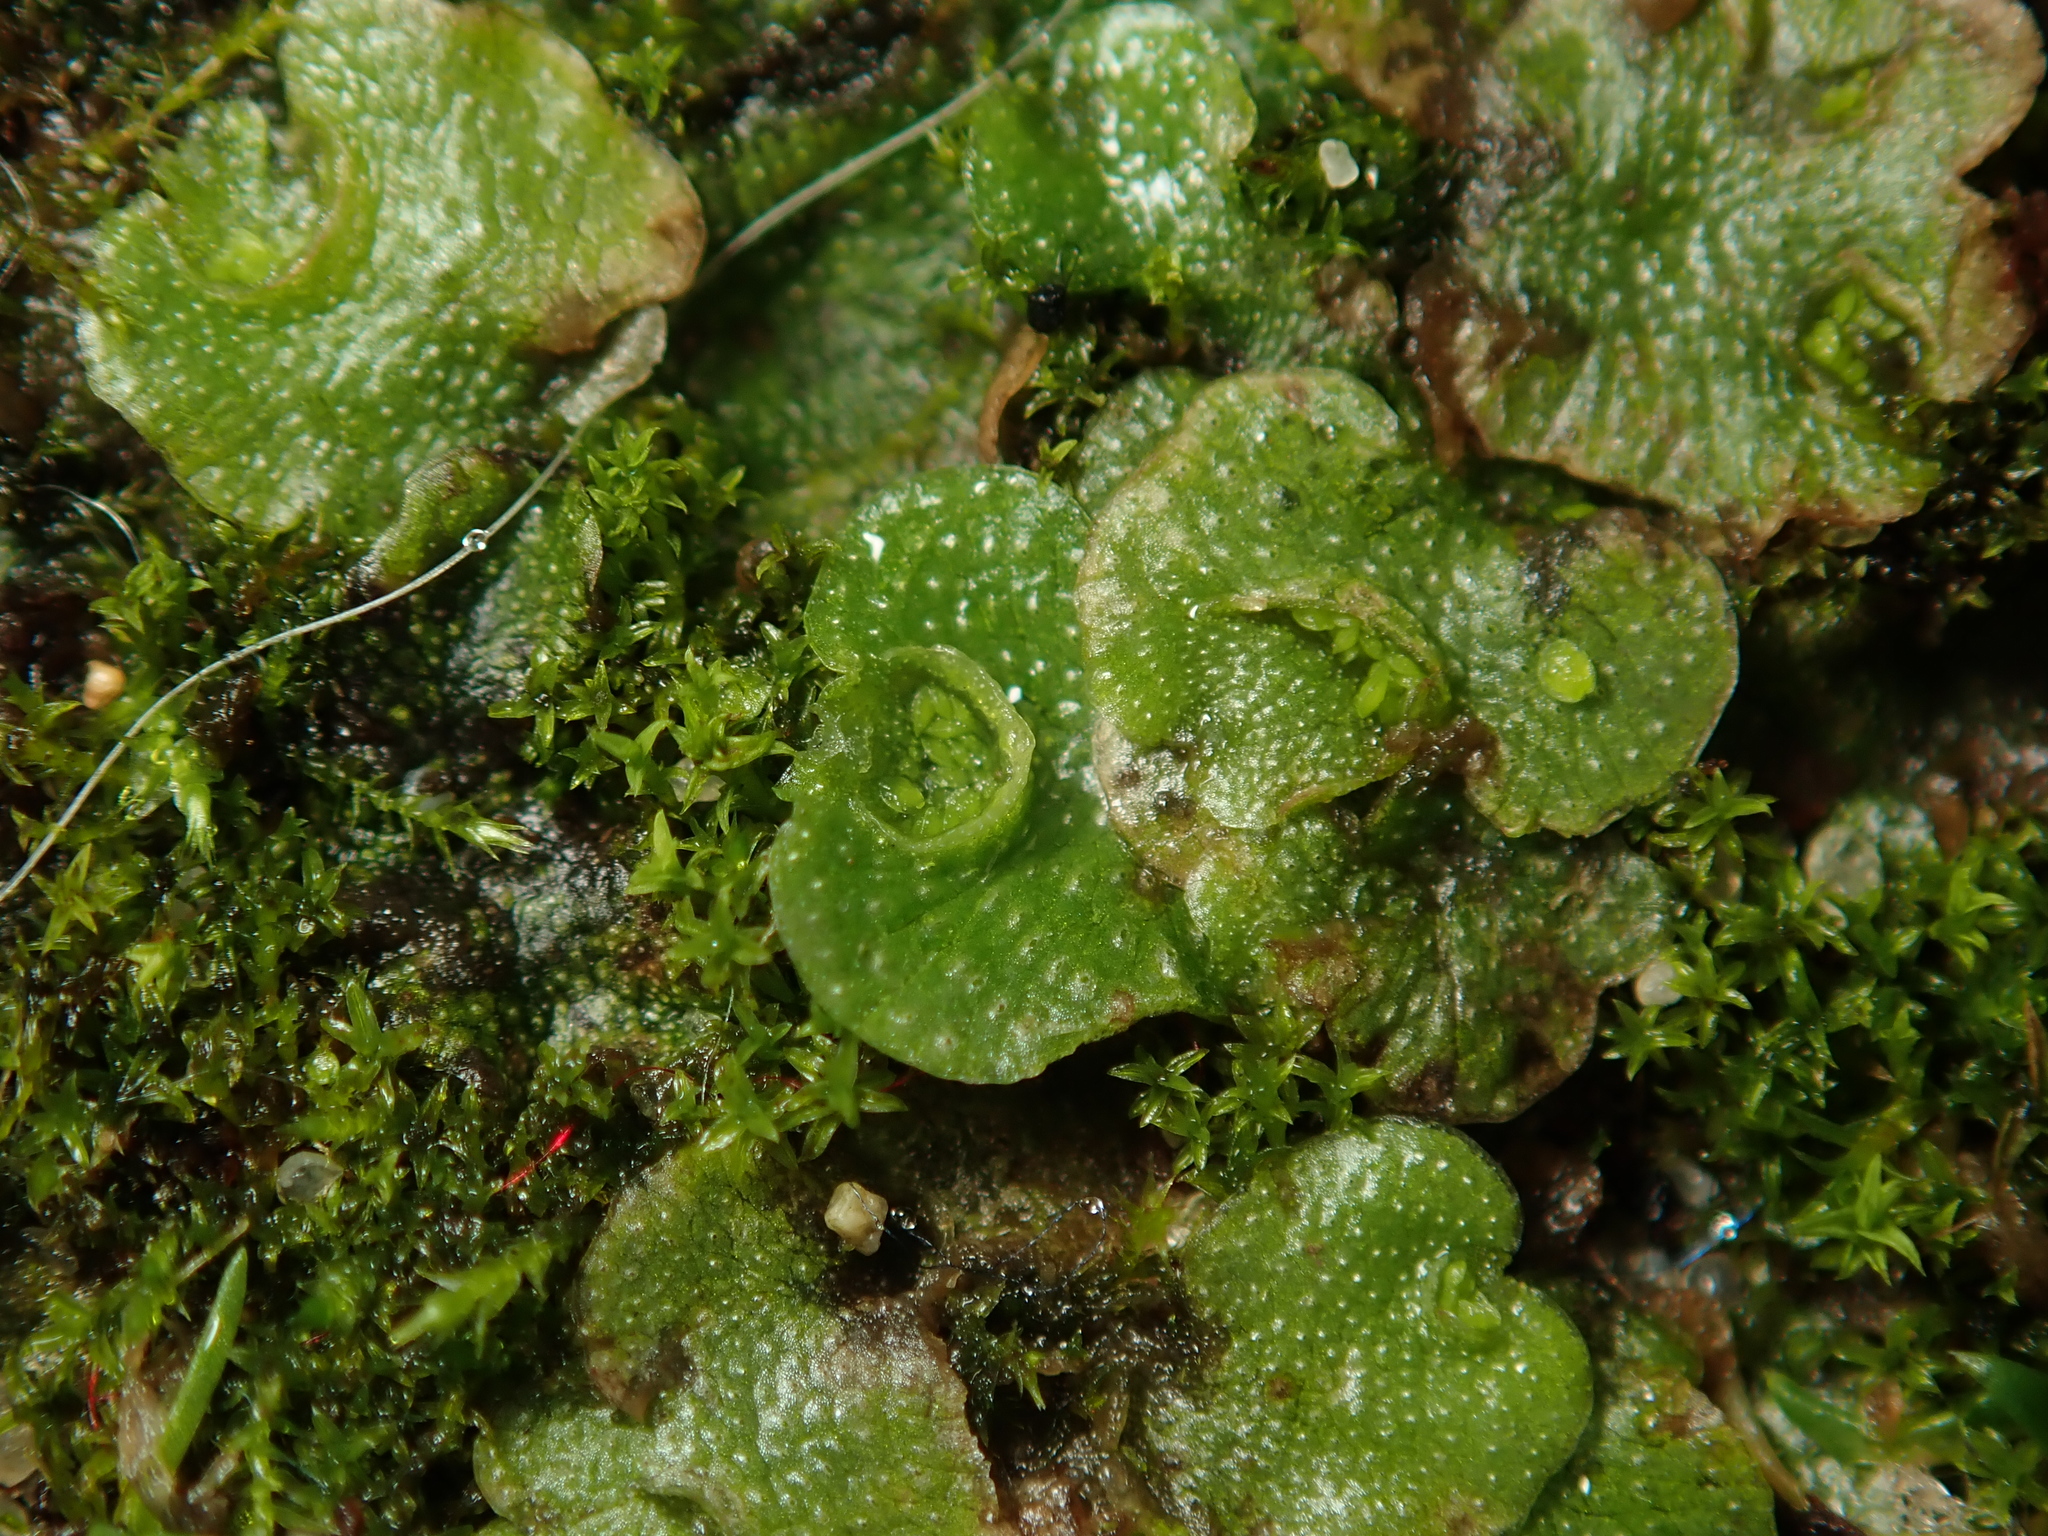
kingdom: Plantae
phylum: Marchantiophyta
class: Marchantiopsida
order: Lunulariales
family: Lunulariaceae
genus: Lunularia
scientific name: Lunularia cruciata
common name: Crescent-cup liverwort
